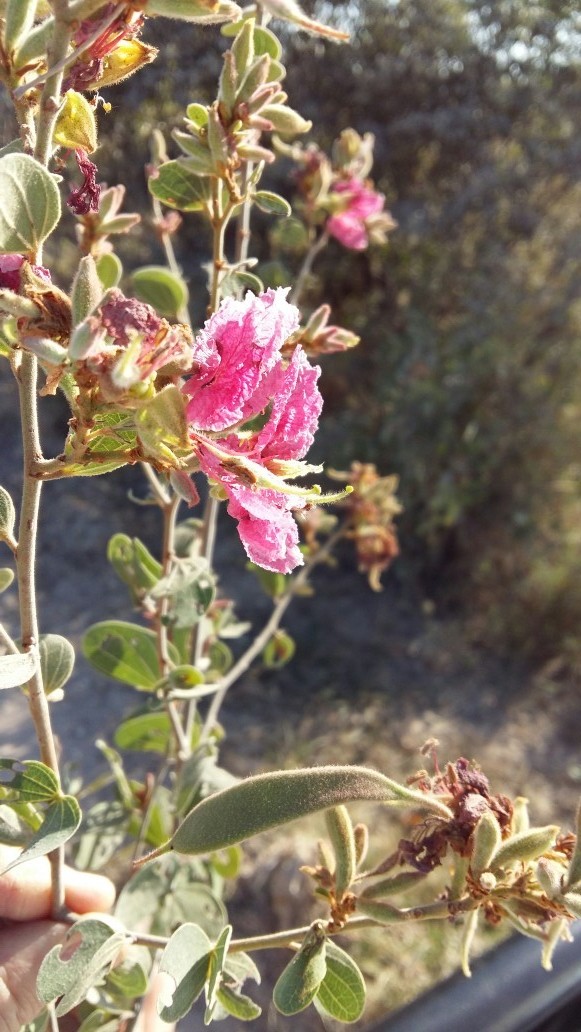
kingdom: Plantae
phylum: Tracheophyta
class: Magnoliopsida
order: Fabales
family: Fabaceae
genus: Bauhinia
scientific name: Bauhinia urbaniana
